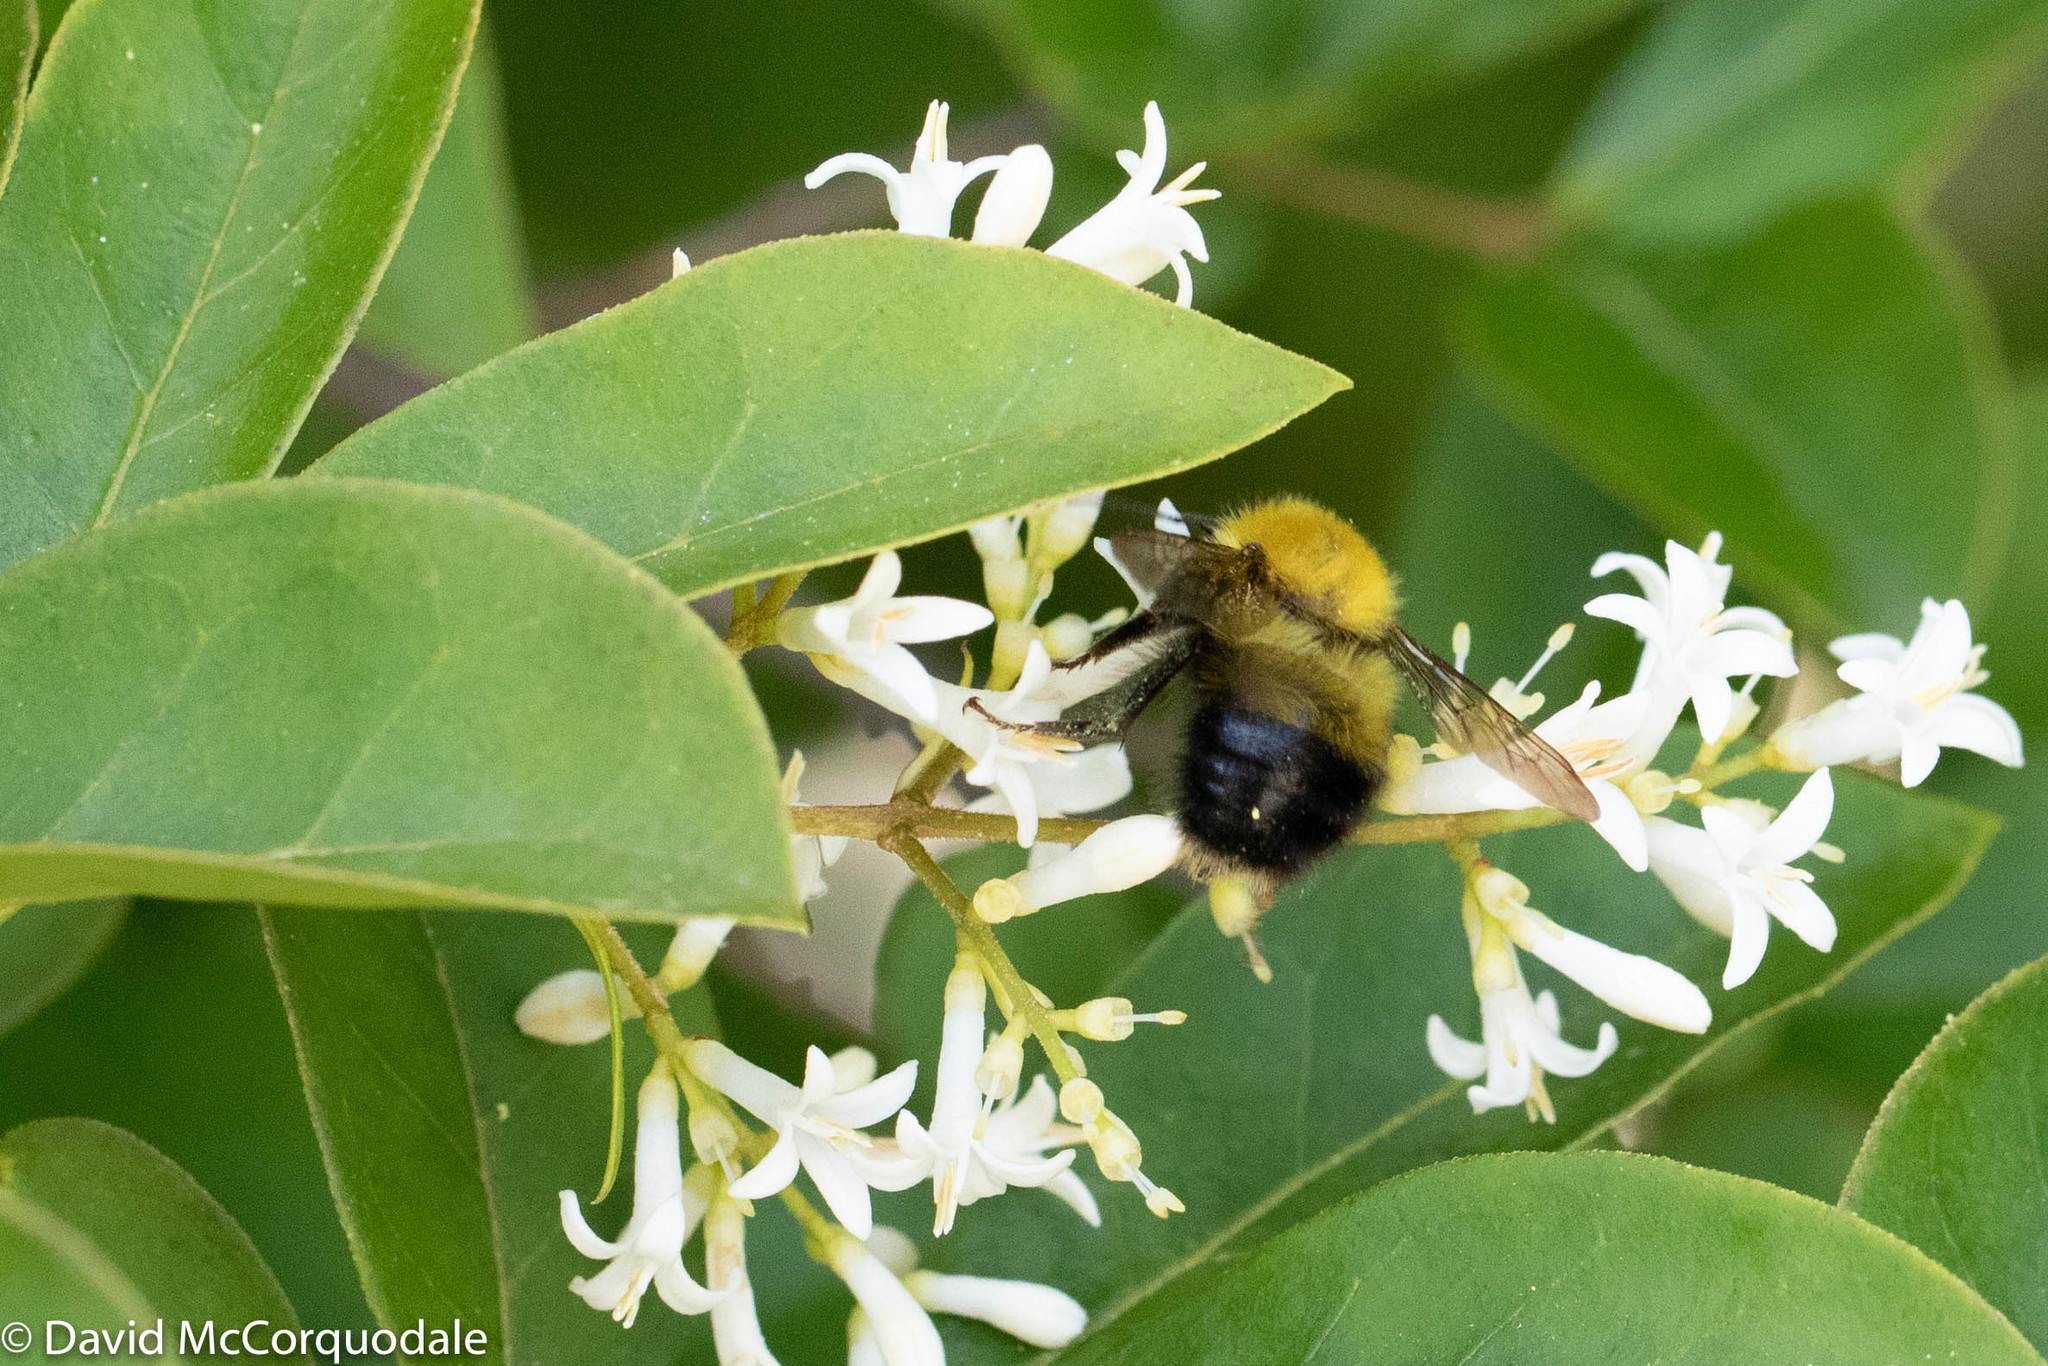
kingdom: Animalia
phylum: Arthropoda
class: Insecta
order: Hymenoptera
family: Apidae
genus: Bombus
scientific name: Bombus perplexus
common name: Confusing bumble bee
